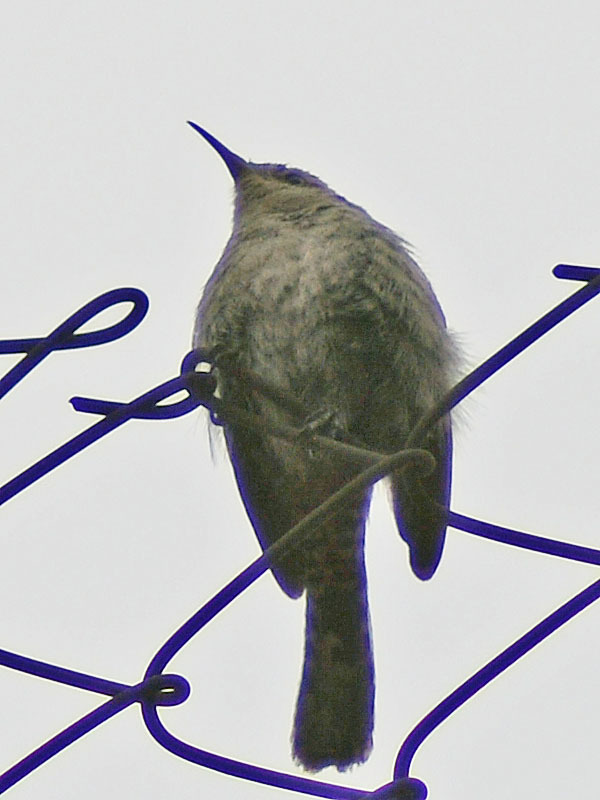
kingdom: Animalia
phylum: Chordata
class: Aves
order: Passeriformes
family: Troglodytidae
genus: Thryomanes
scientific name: Thryomanes bewickii
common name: Bewick's wren
